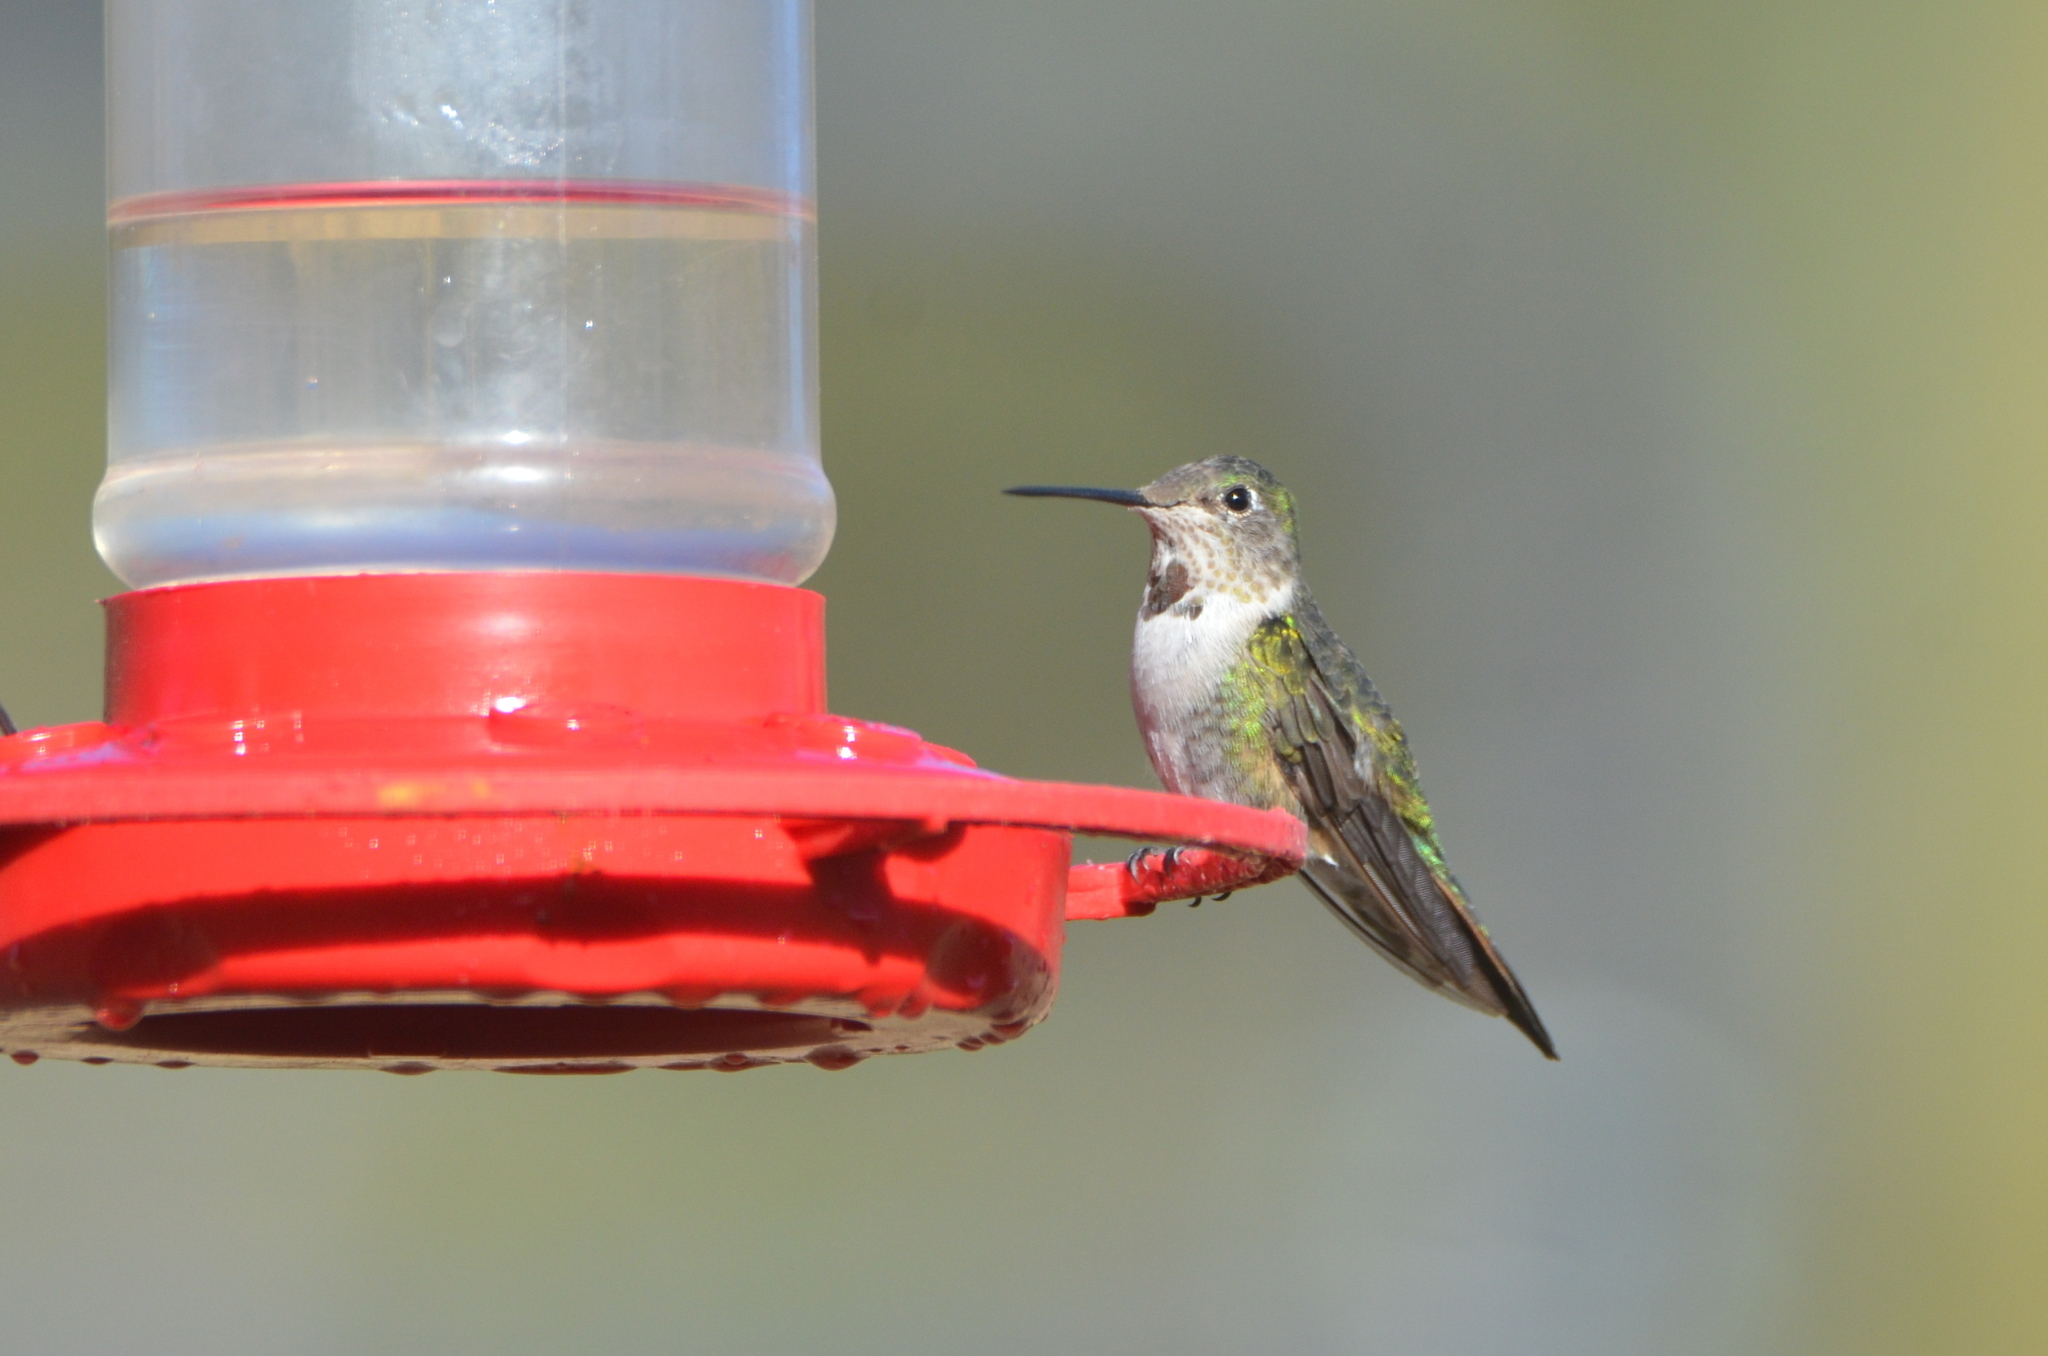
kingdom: Animalia
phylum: Chordata
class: Aves
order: Apodiformes
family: Trochilidae
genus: Selasphorus
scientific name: Selasphorus platycercus
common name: Broad-tailed hummingbird
